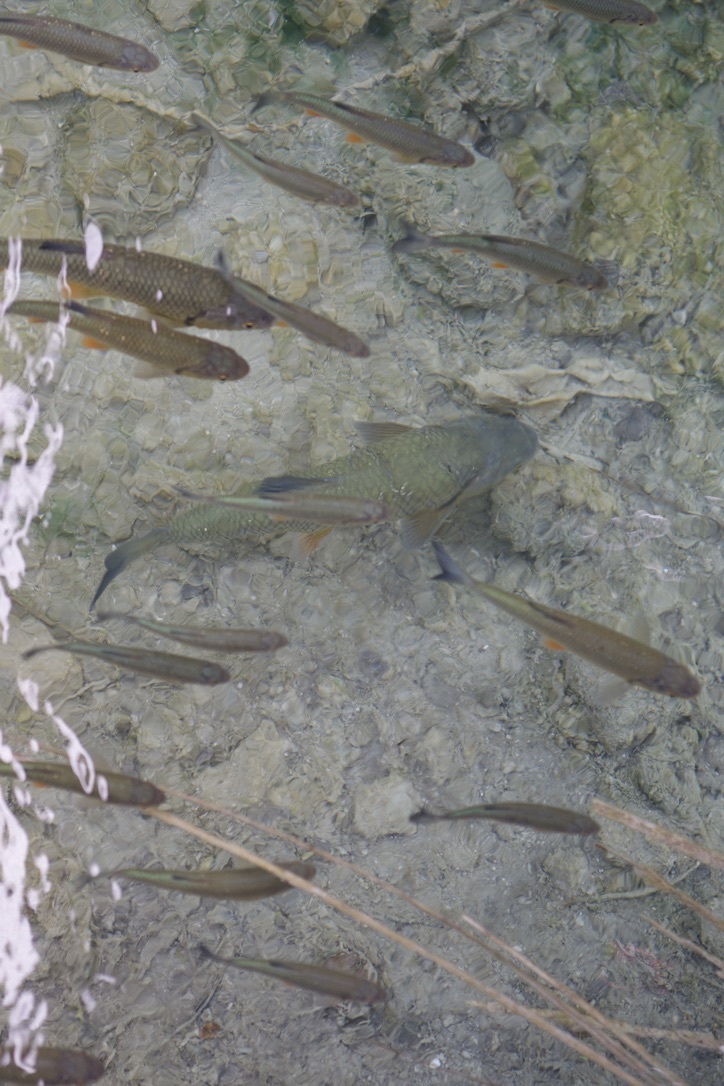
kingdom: Animalia
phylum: Chordata
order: Cypriniformes
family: Cyprinidae
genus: Squalius
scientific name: Squalius cephalus
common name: Chub
